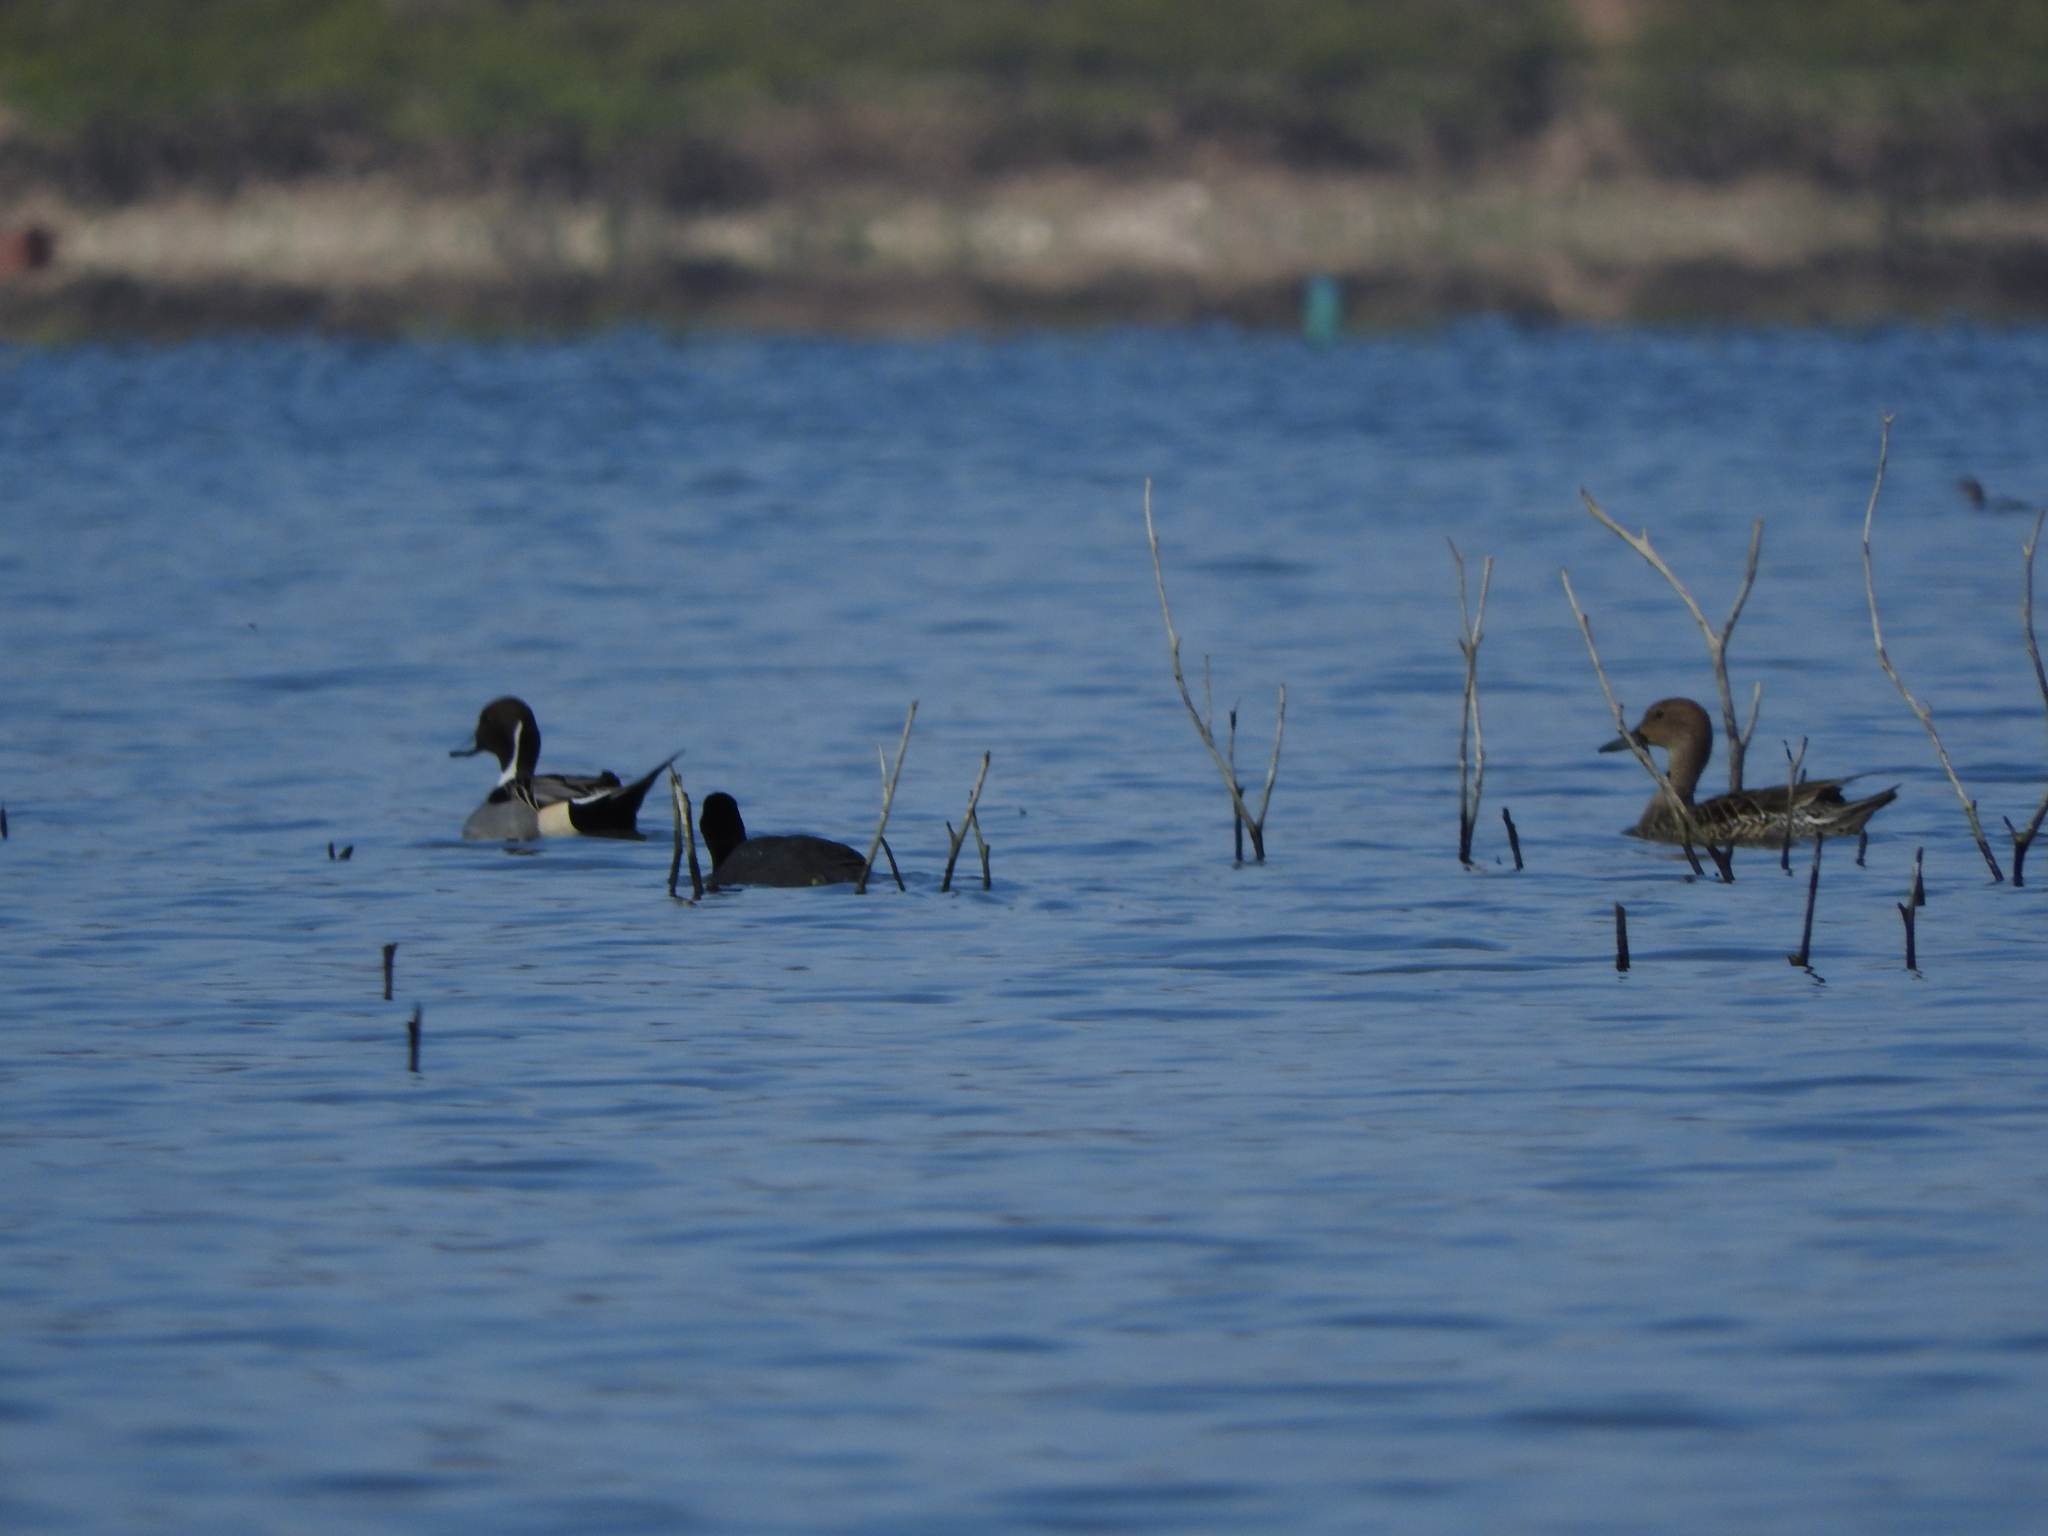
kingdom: Animalia
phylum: Chordata
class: Aves
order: Anseriformes
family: Anatidae
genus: Anas
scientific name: Anas acuta
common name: Northern pintail
